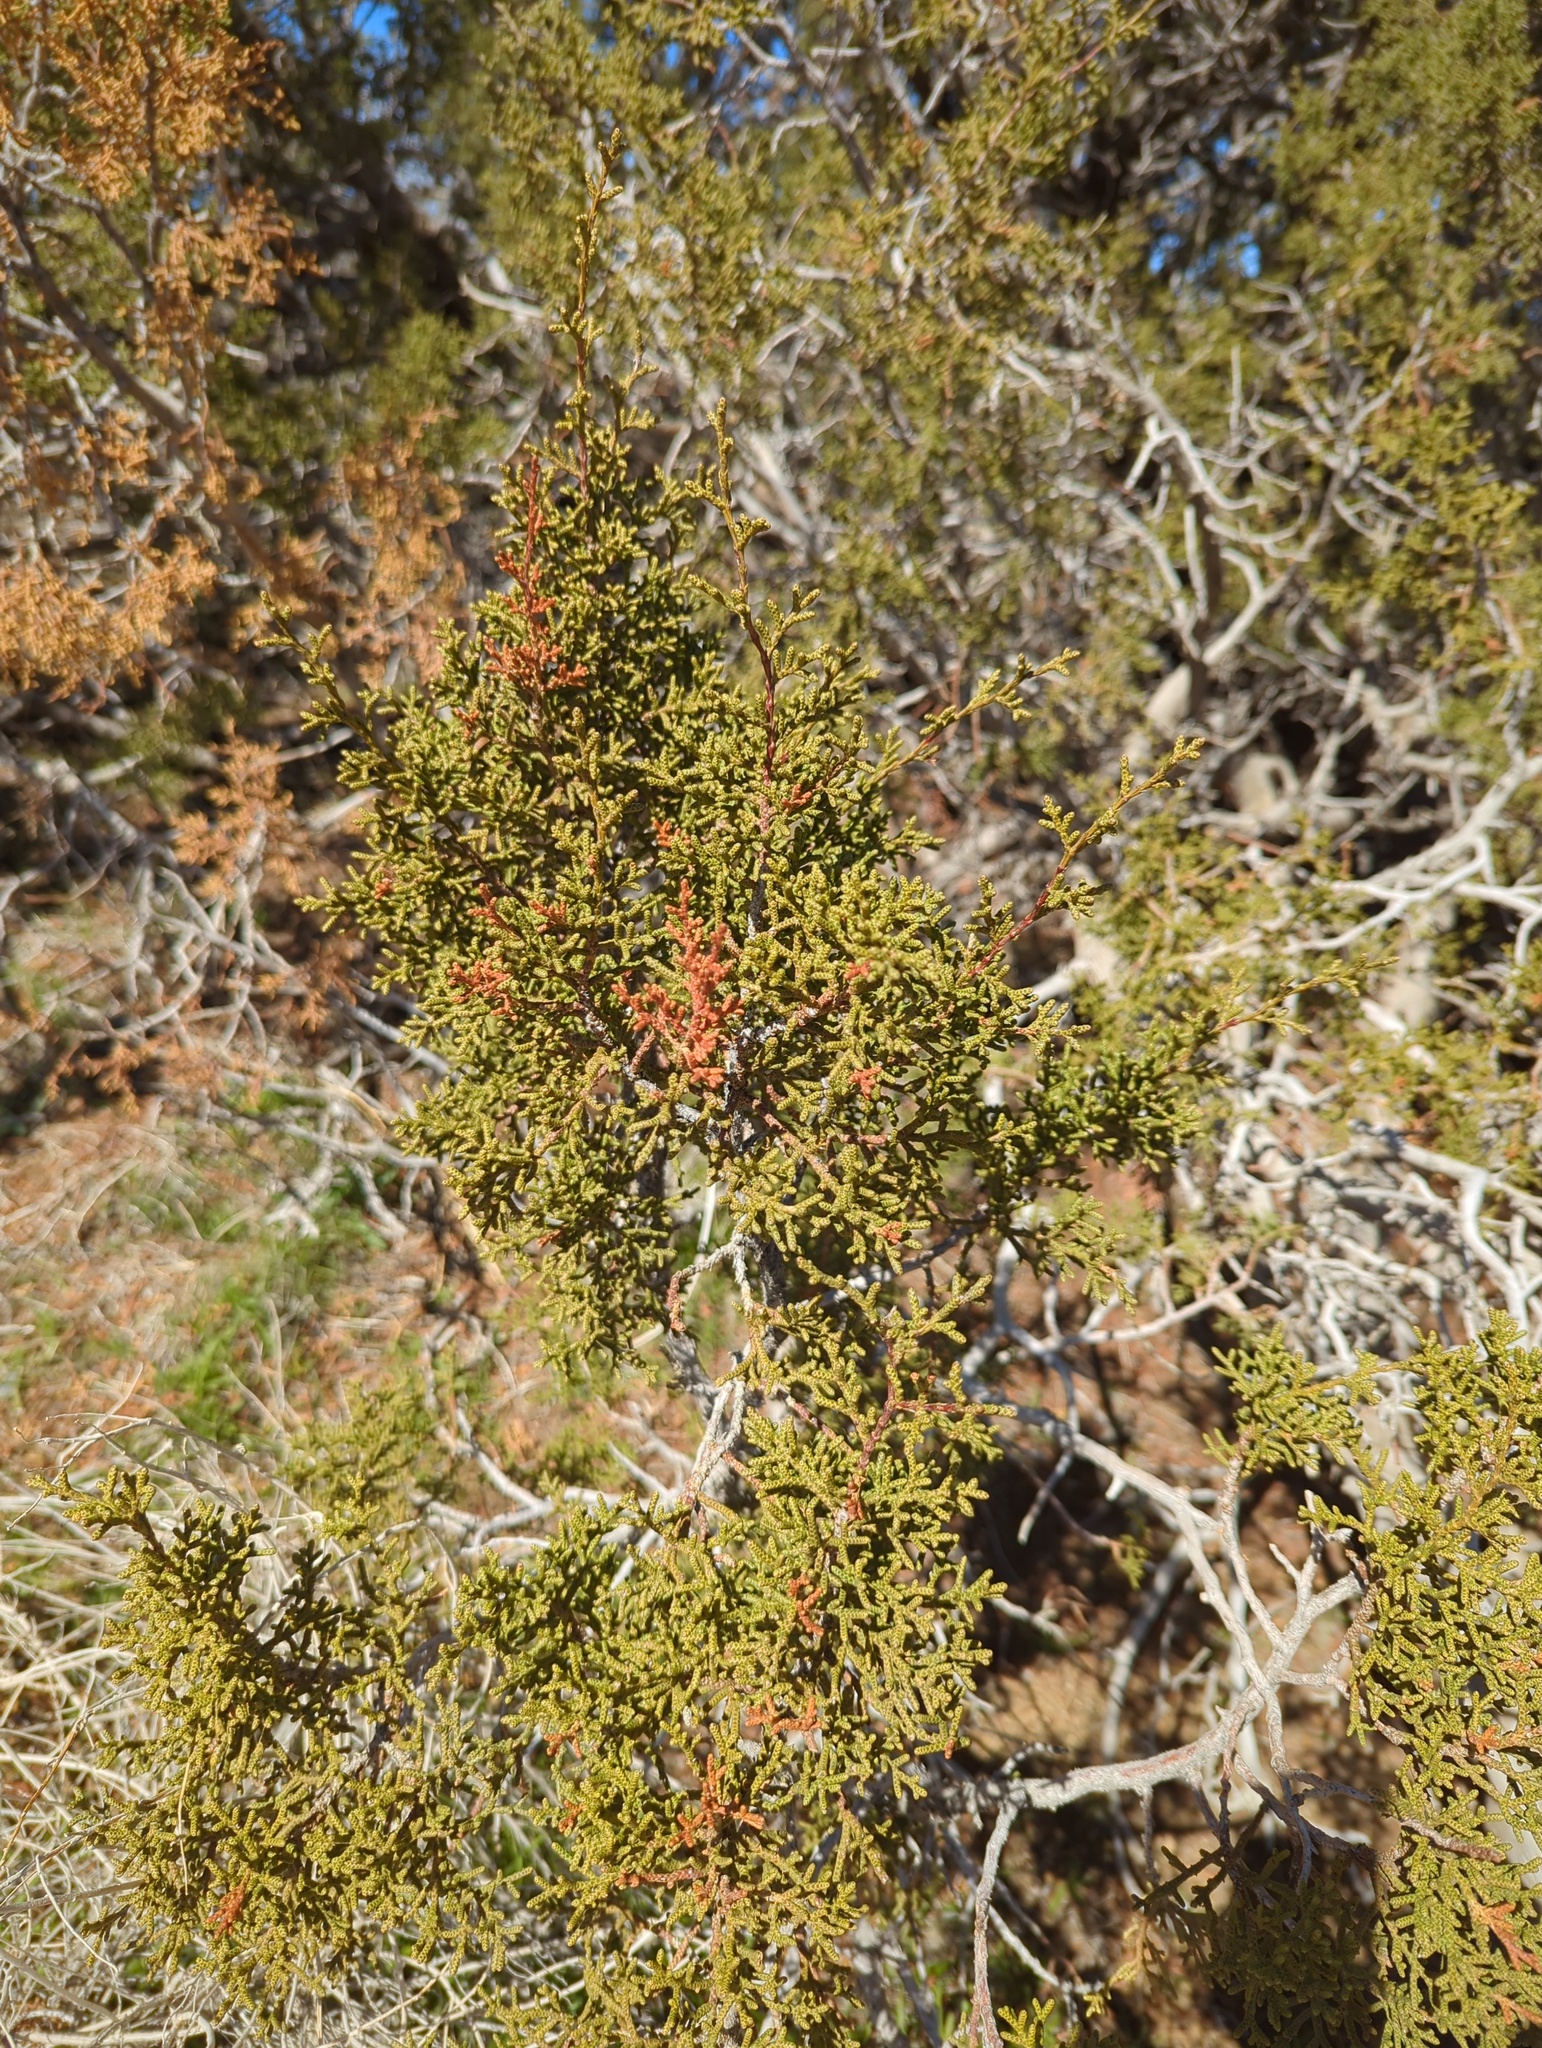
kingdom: Plantae
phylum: Tracheophyta
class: Pinopsida
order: Pinales
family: Cupressaceae
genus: Juniperus
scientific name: Juniperus californica
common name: California juniper
